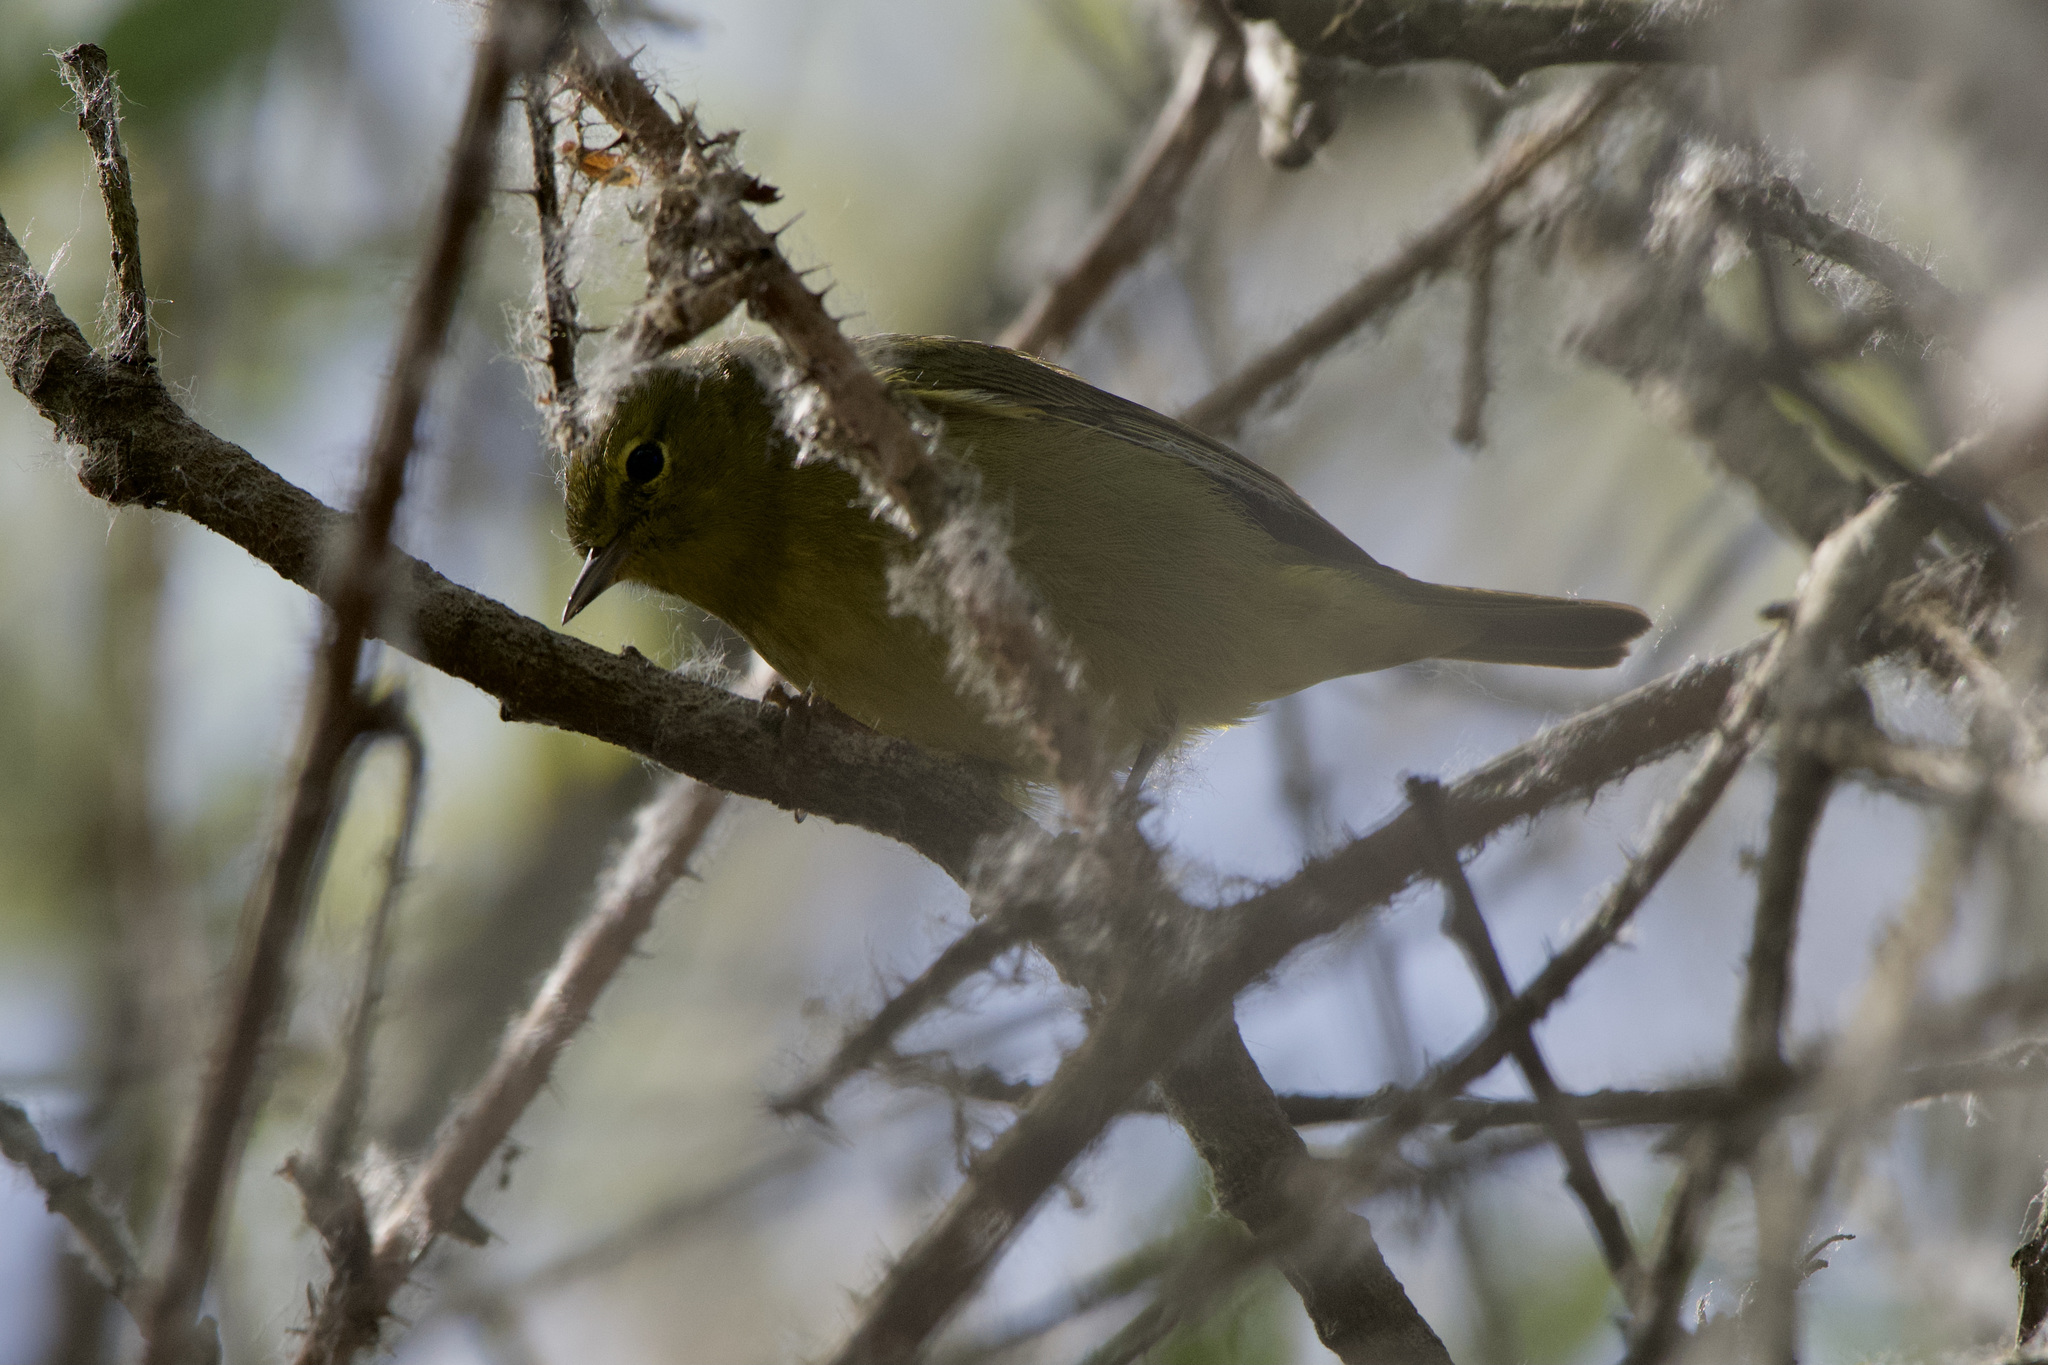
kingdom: Animalia
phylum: Chordata
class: Aves
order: Passeriformes
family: Parulidae
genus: Leiothlypis
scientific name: Leiothlypis celata
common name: Orange-crowned warbler
